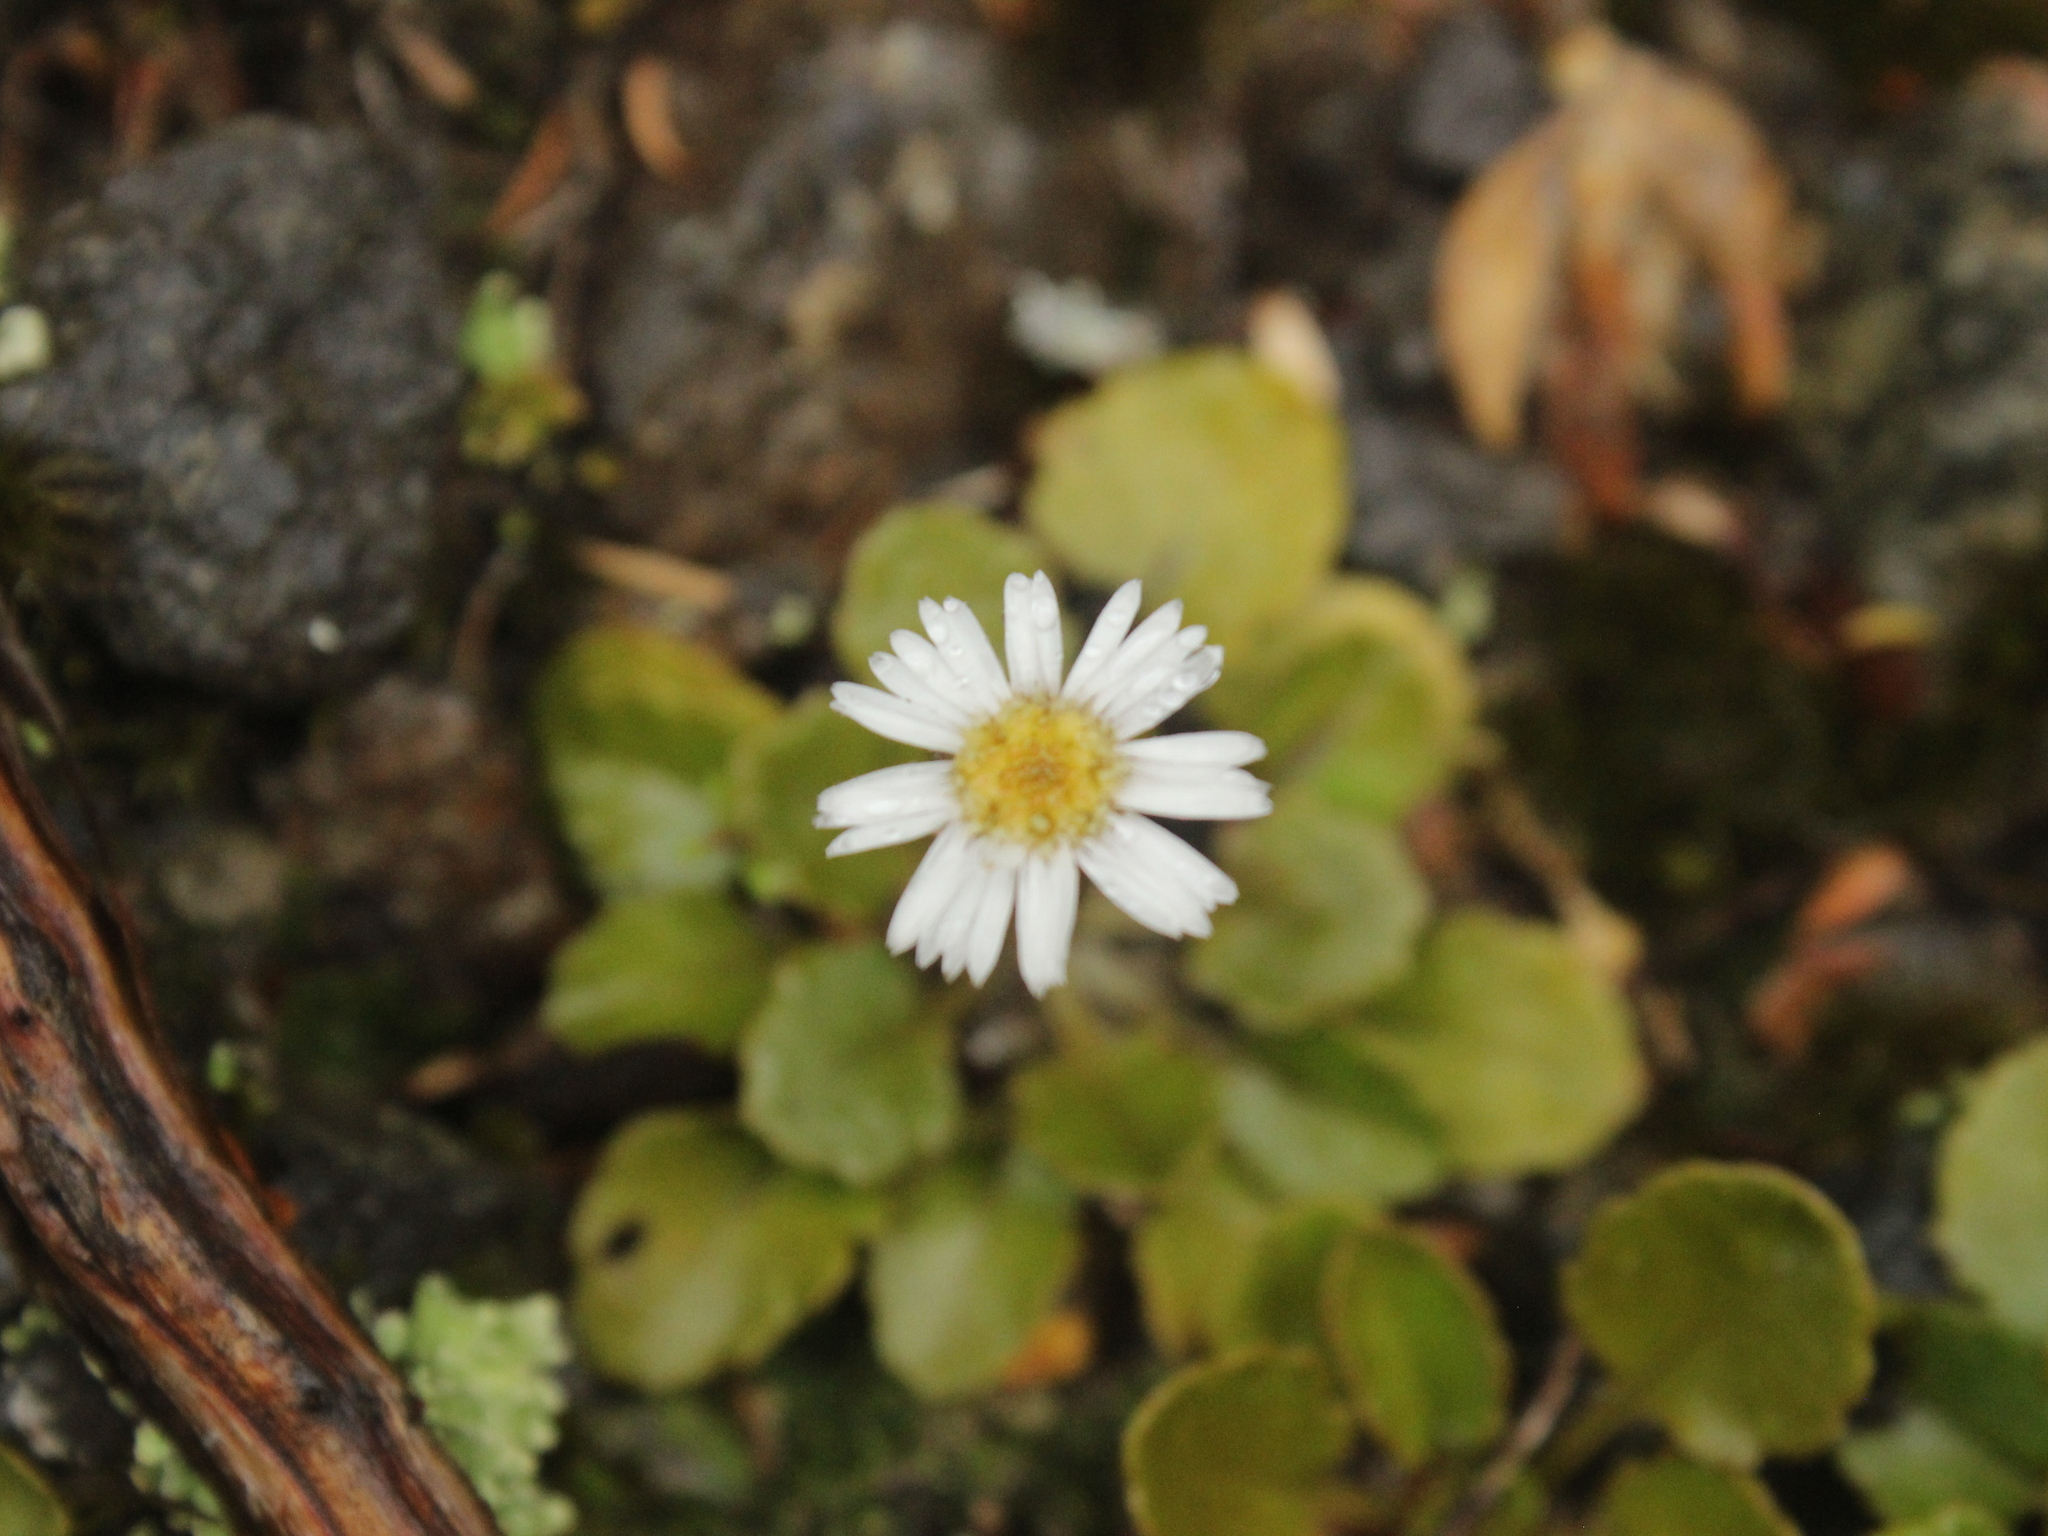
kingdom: Plantae
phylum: Tracheophyta
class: Magnoliopsida
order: Asterales
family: Asteraceae
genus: Lagenophora
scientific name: Lagenophora pumila
